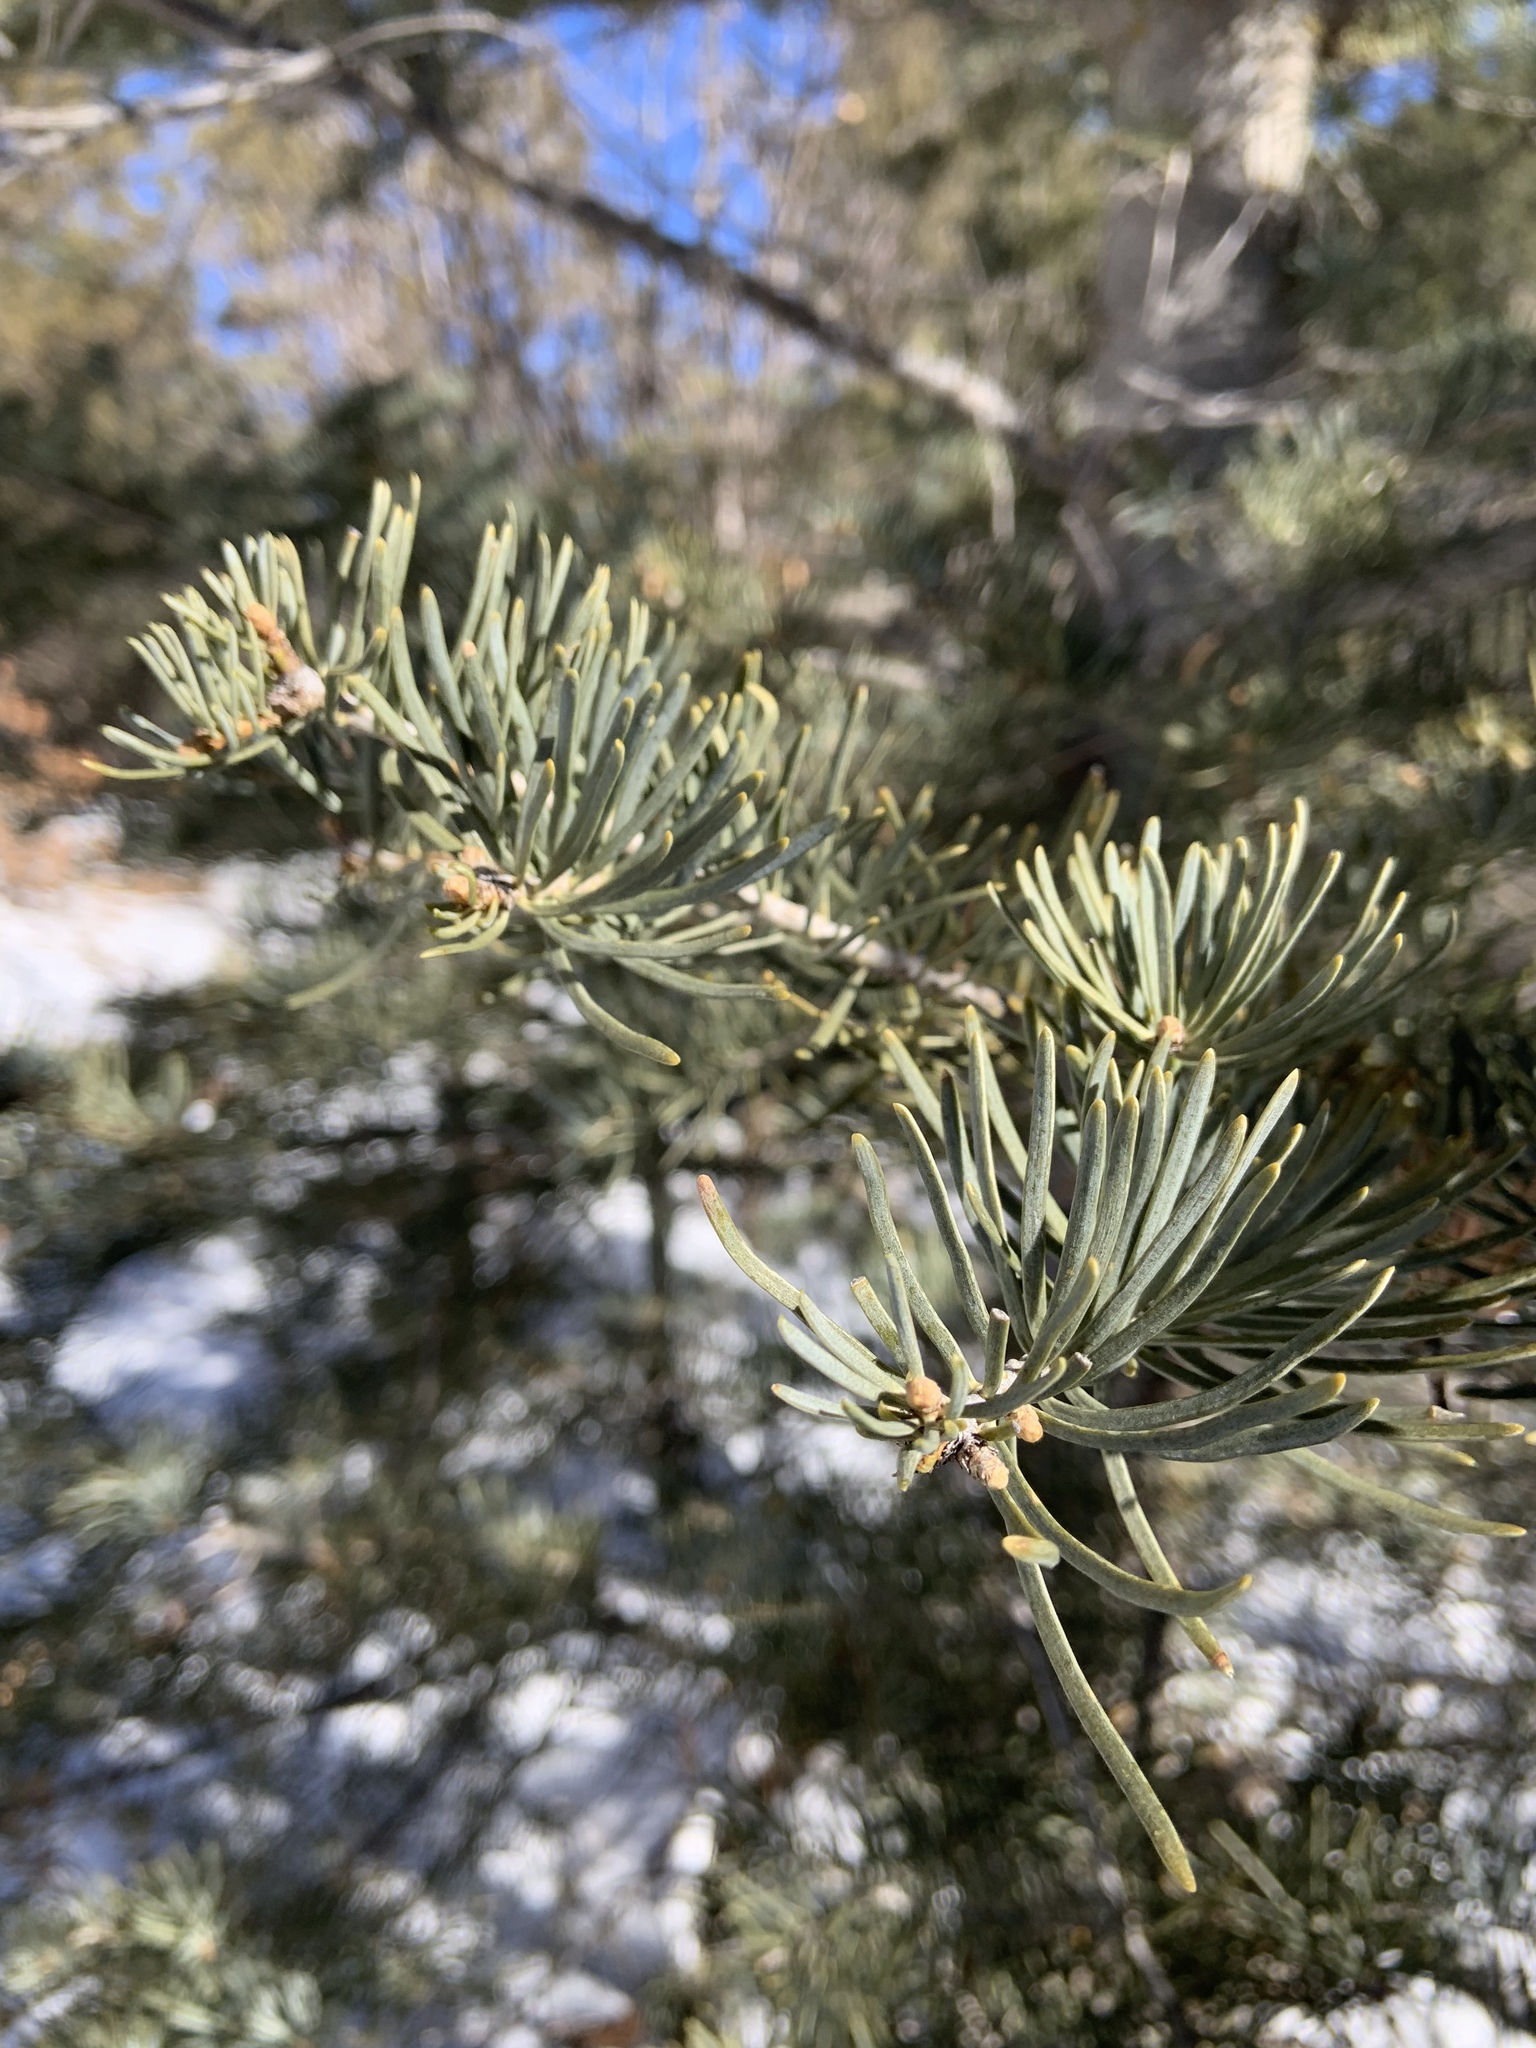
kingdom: Plantae
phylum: Tracheophyta
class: Pinopsida
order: Pinales
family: Pinaceae
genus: Abies
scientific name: Abies concolor
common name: Colorado fir
